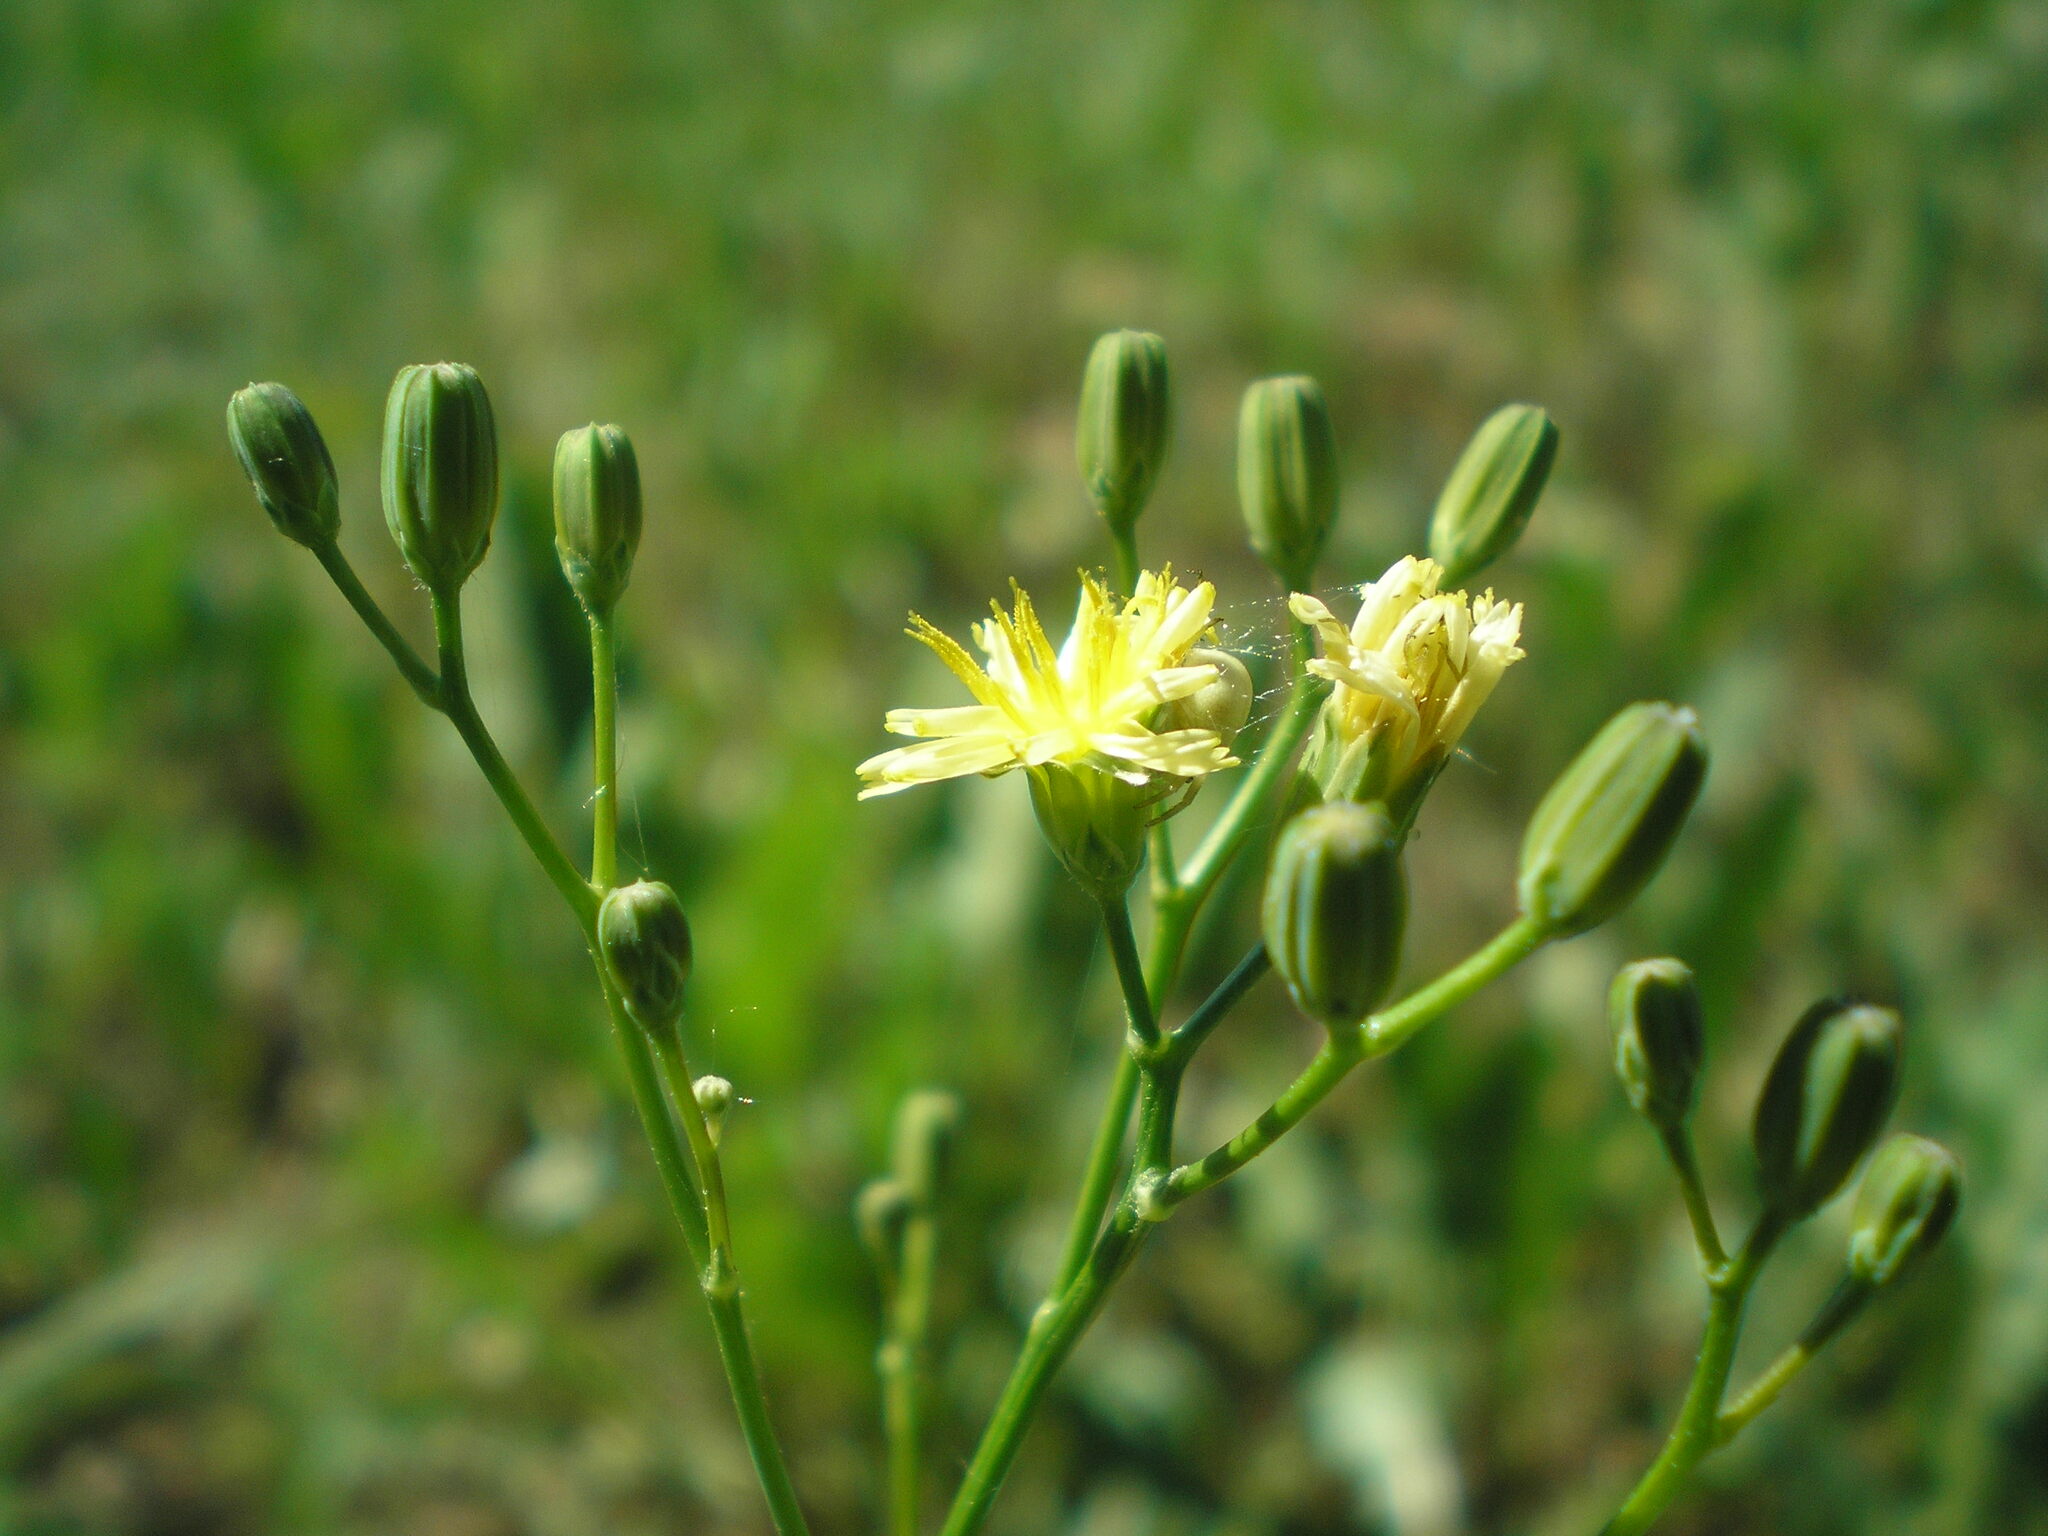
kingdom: Plantae
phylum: Tracheophyta
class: Magnoliopsida
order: Asterales
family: Asteraceae
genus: Lapsana
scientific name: Lapsana communis
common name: Nipplewort
